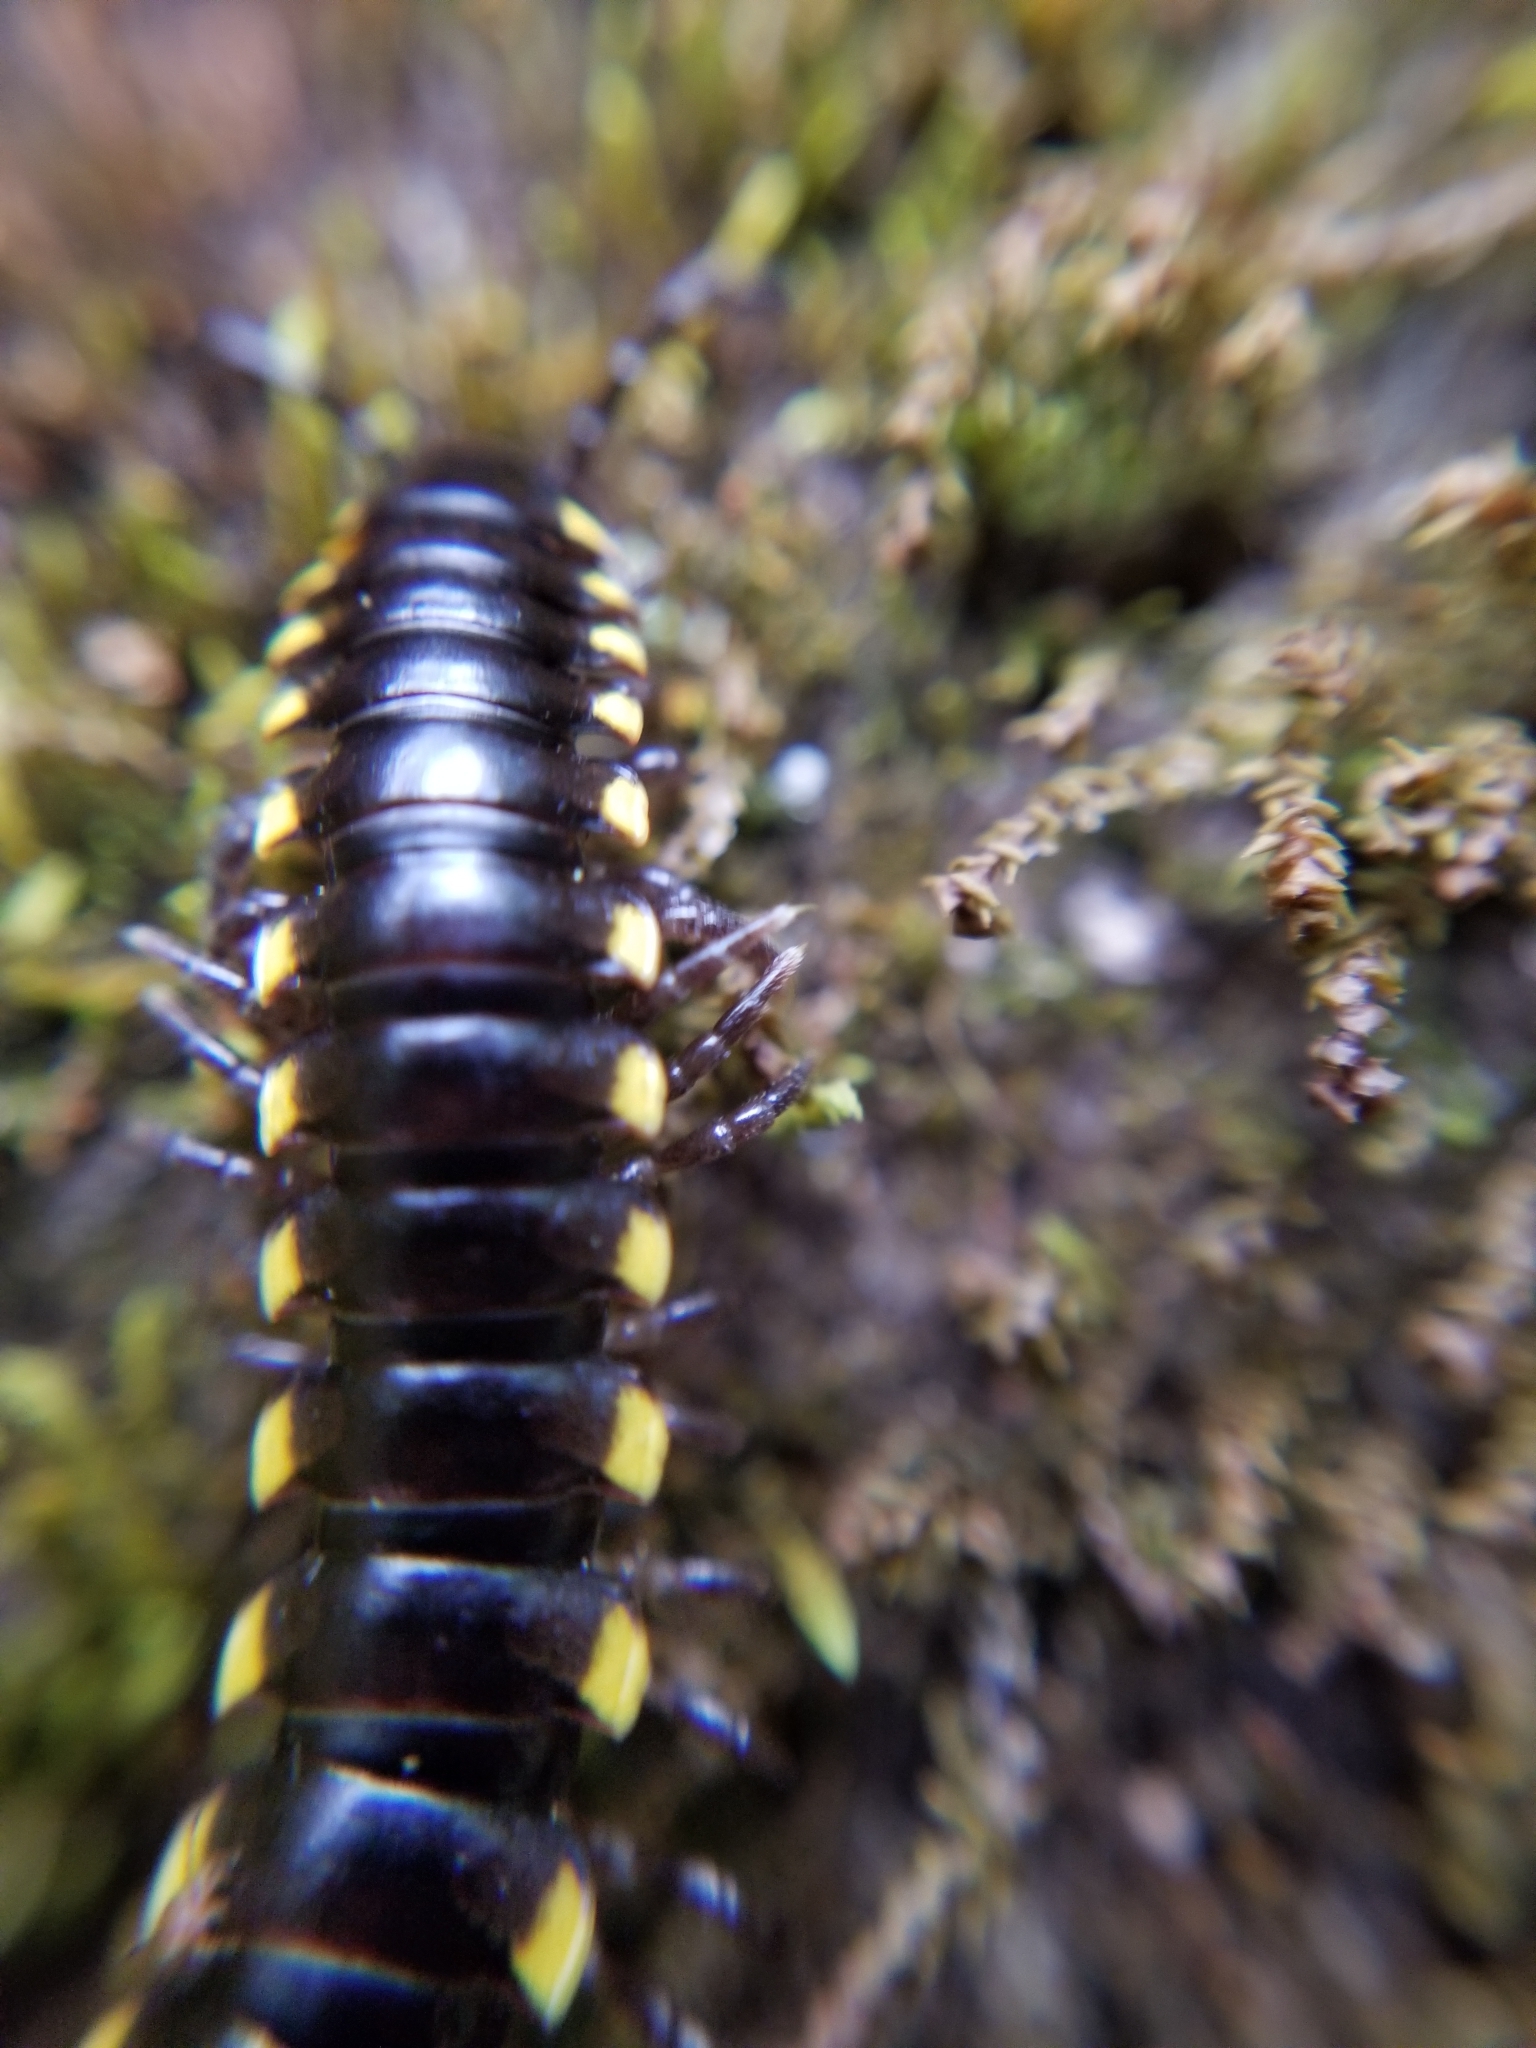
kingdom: Animalia
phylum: Arthropoda
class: Diplopoda
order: Polydesmida
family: Xystodesmidae
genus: Harpaphe
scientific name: Harpaphe haydeniana
